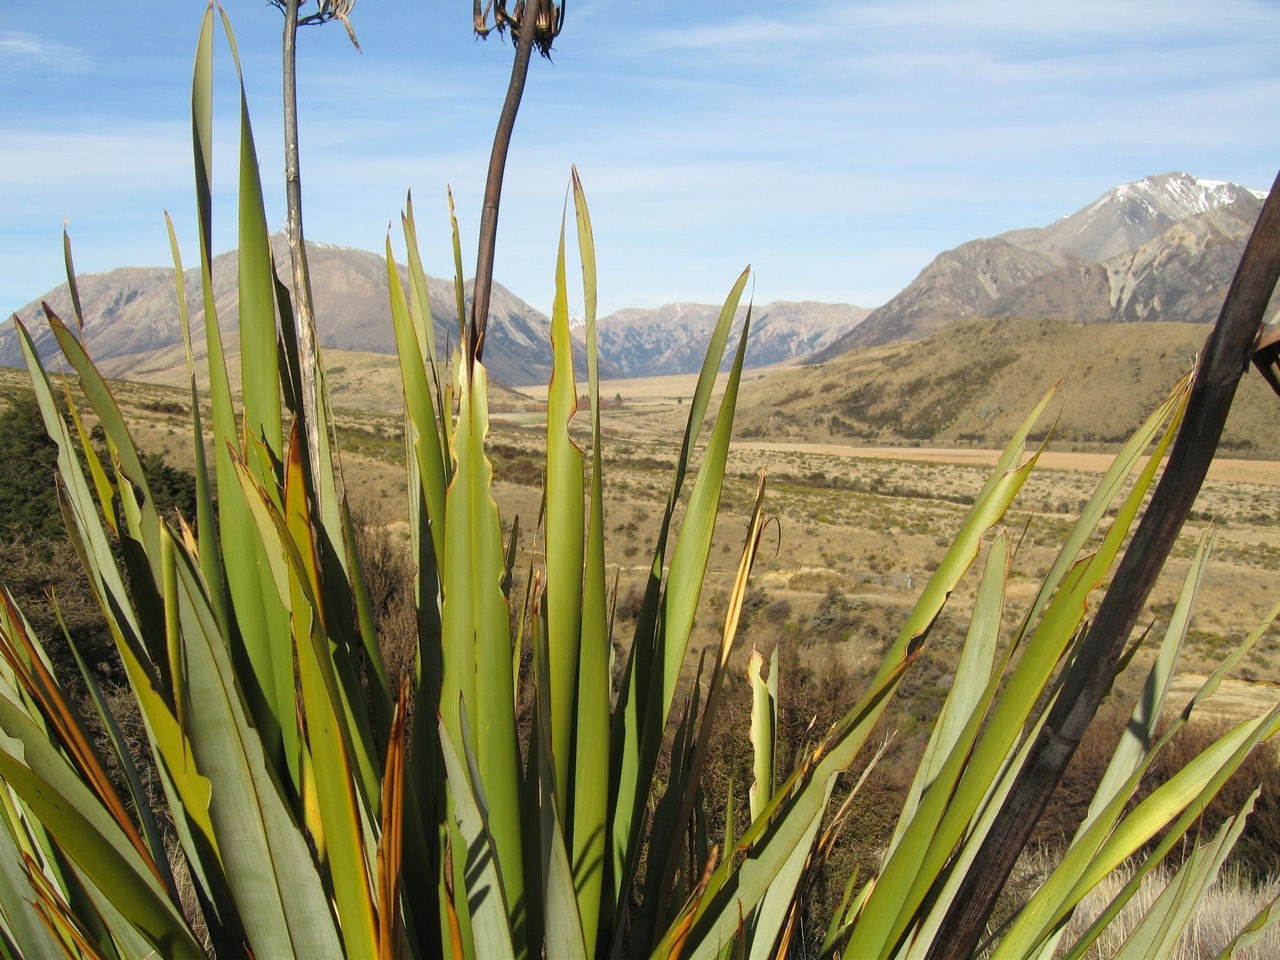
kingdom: Animalia
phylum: Arthropoda
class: Insecta
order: Lepidoptera
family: Noctuidae
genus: Ichneutica
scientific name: Ichneutica
